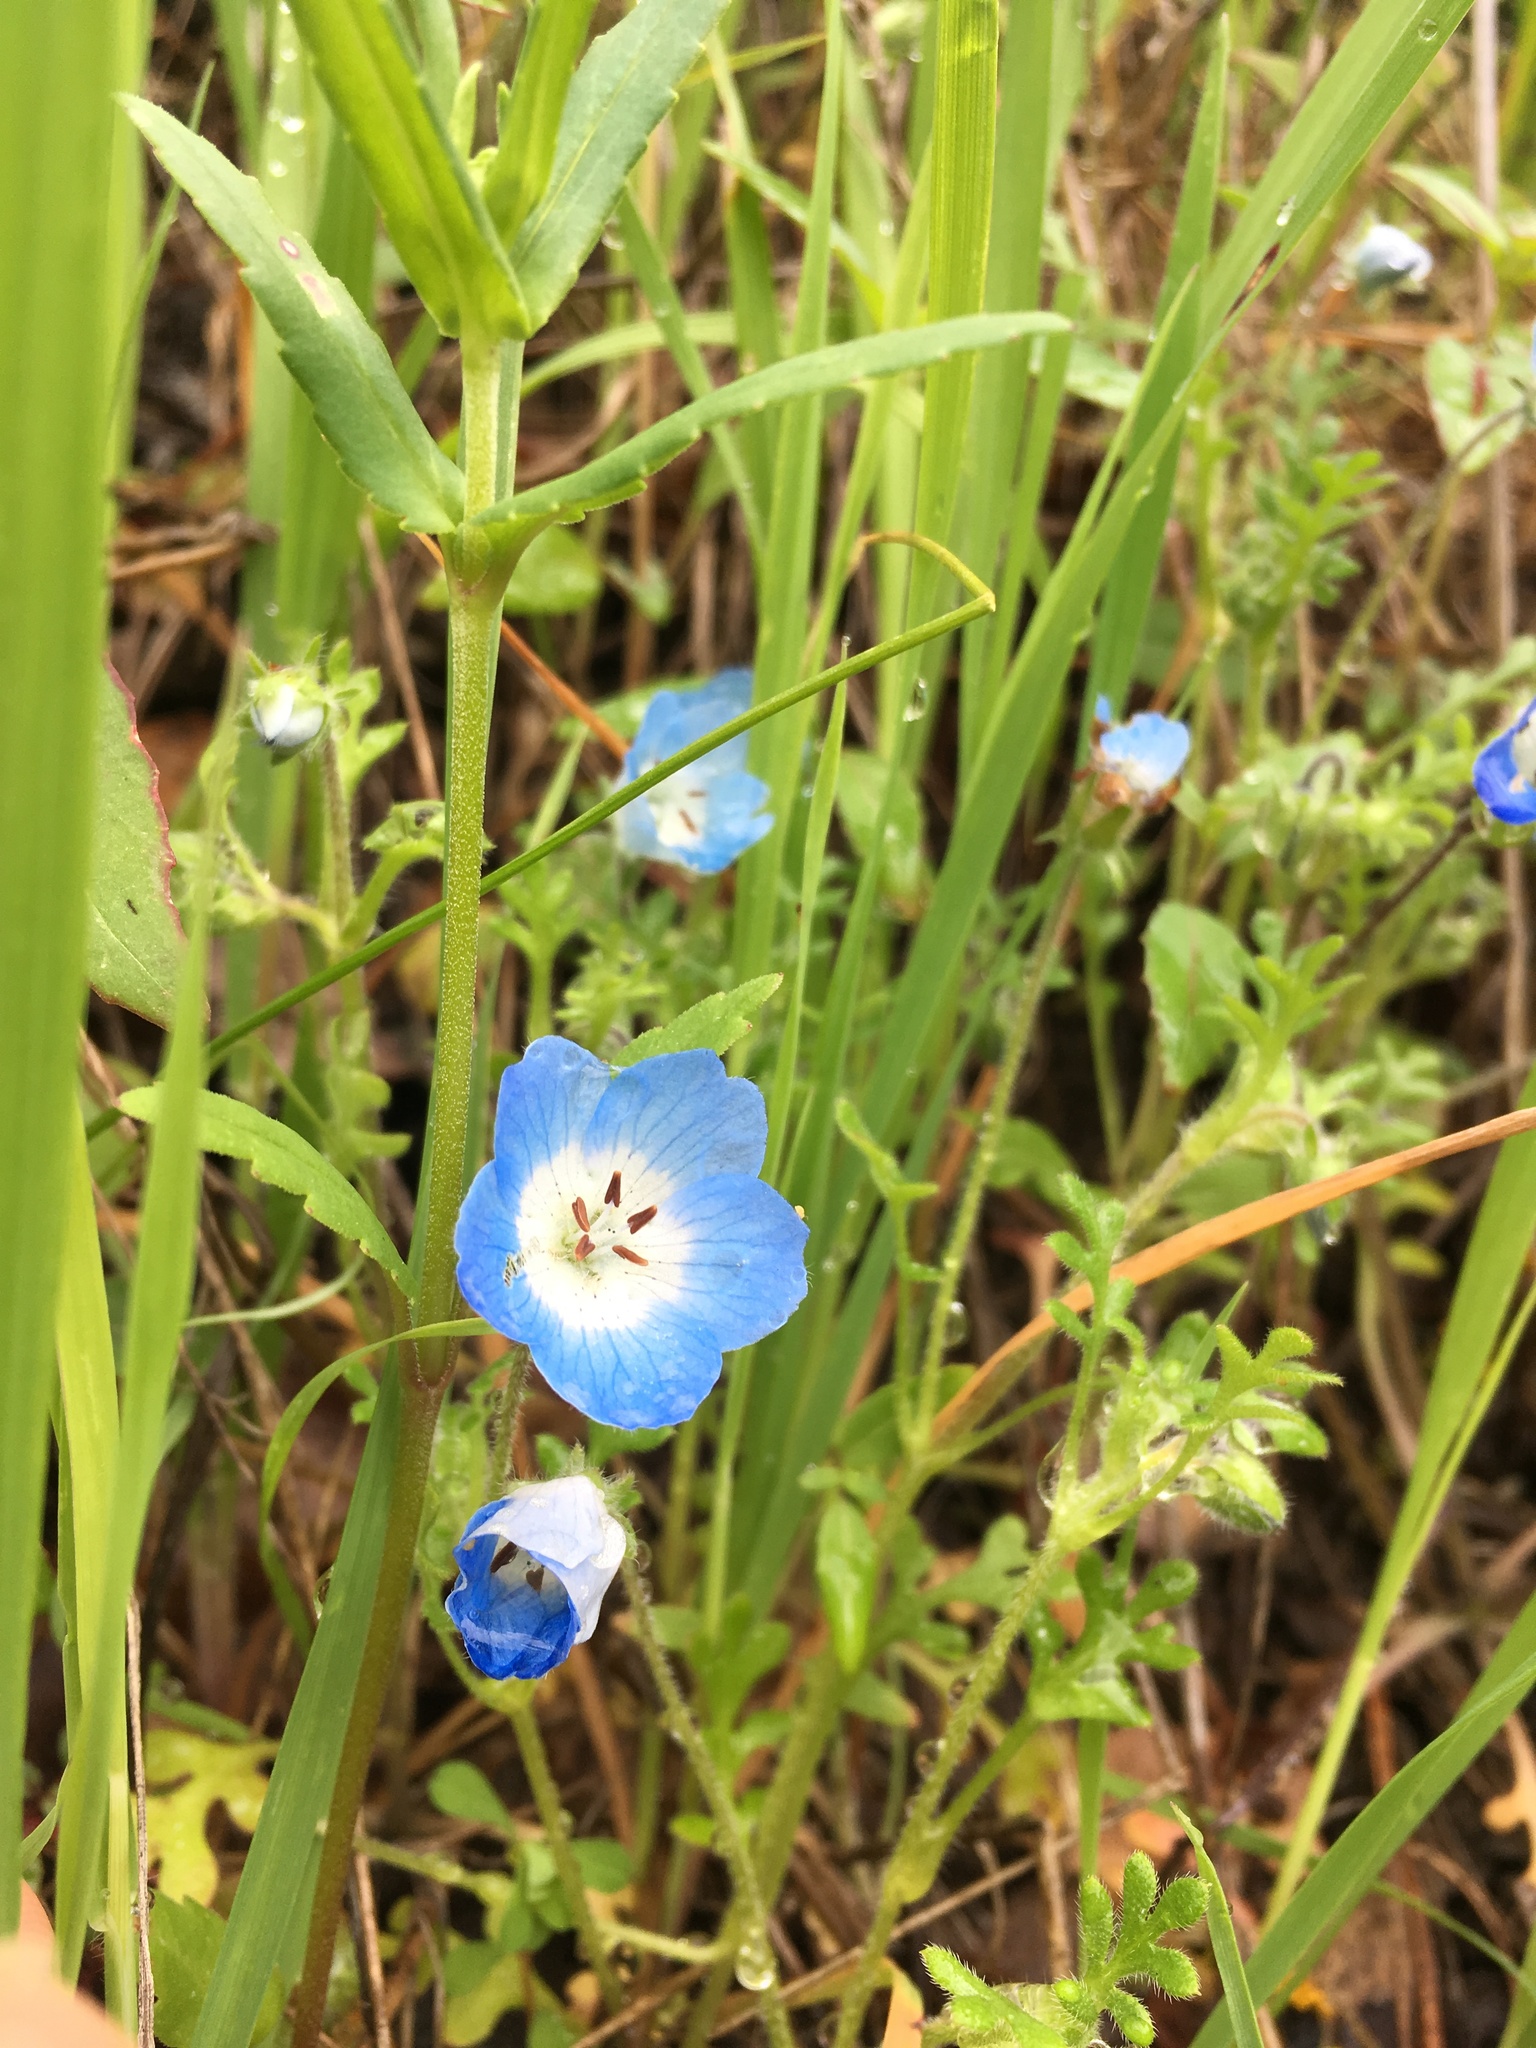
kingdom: Plantae
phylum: Tracheophyta
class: Magnoliopsida
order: Boraginales
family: Hydrophyllaceae
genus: Nemophila
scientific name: Nemophila menziesii
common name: Baby's-blue-eyes
